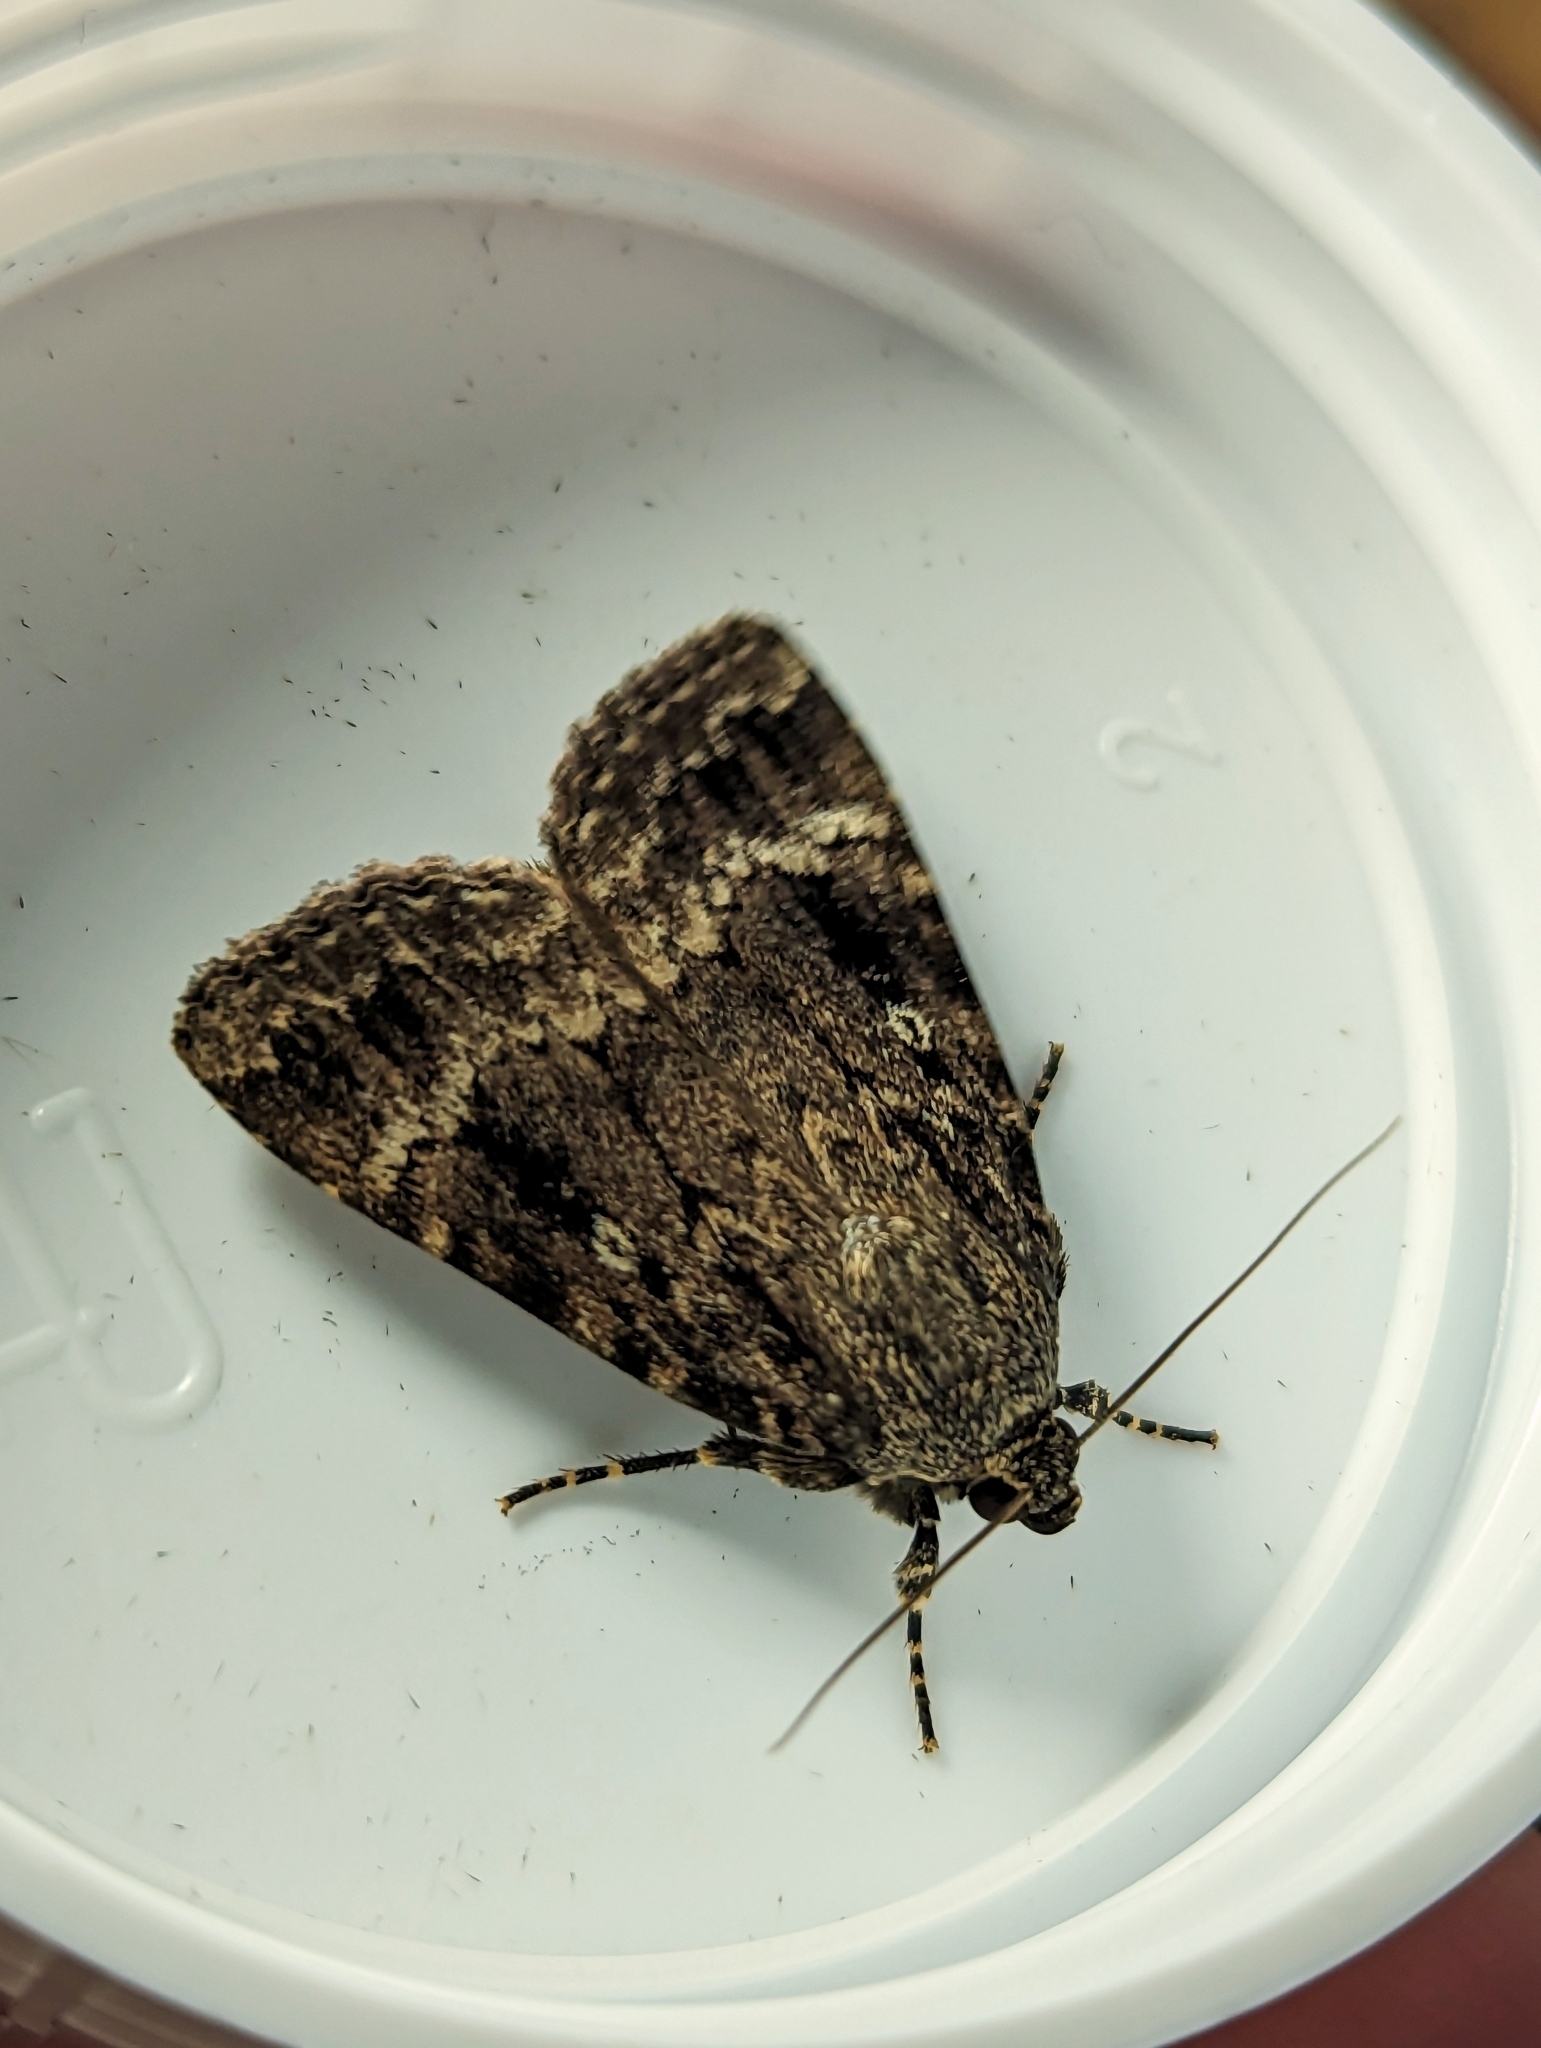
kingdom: Animalia
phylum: Arthropoda
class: Insecta
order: Lepidoptera
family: Noctuidae
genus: Amphipyra
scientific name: Amphipyra pyramidea
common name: Copper underwing
